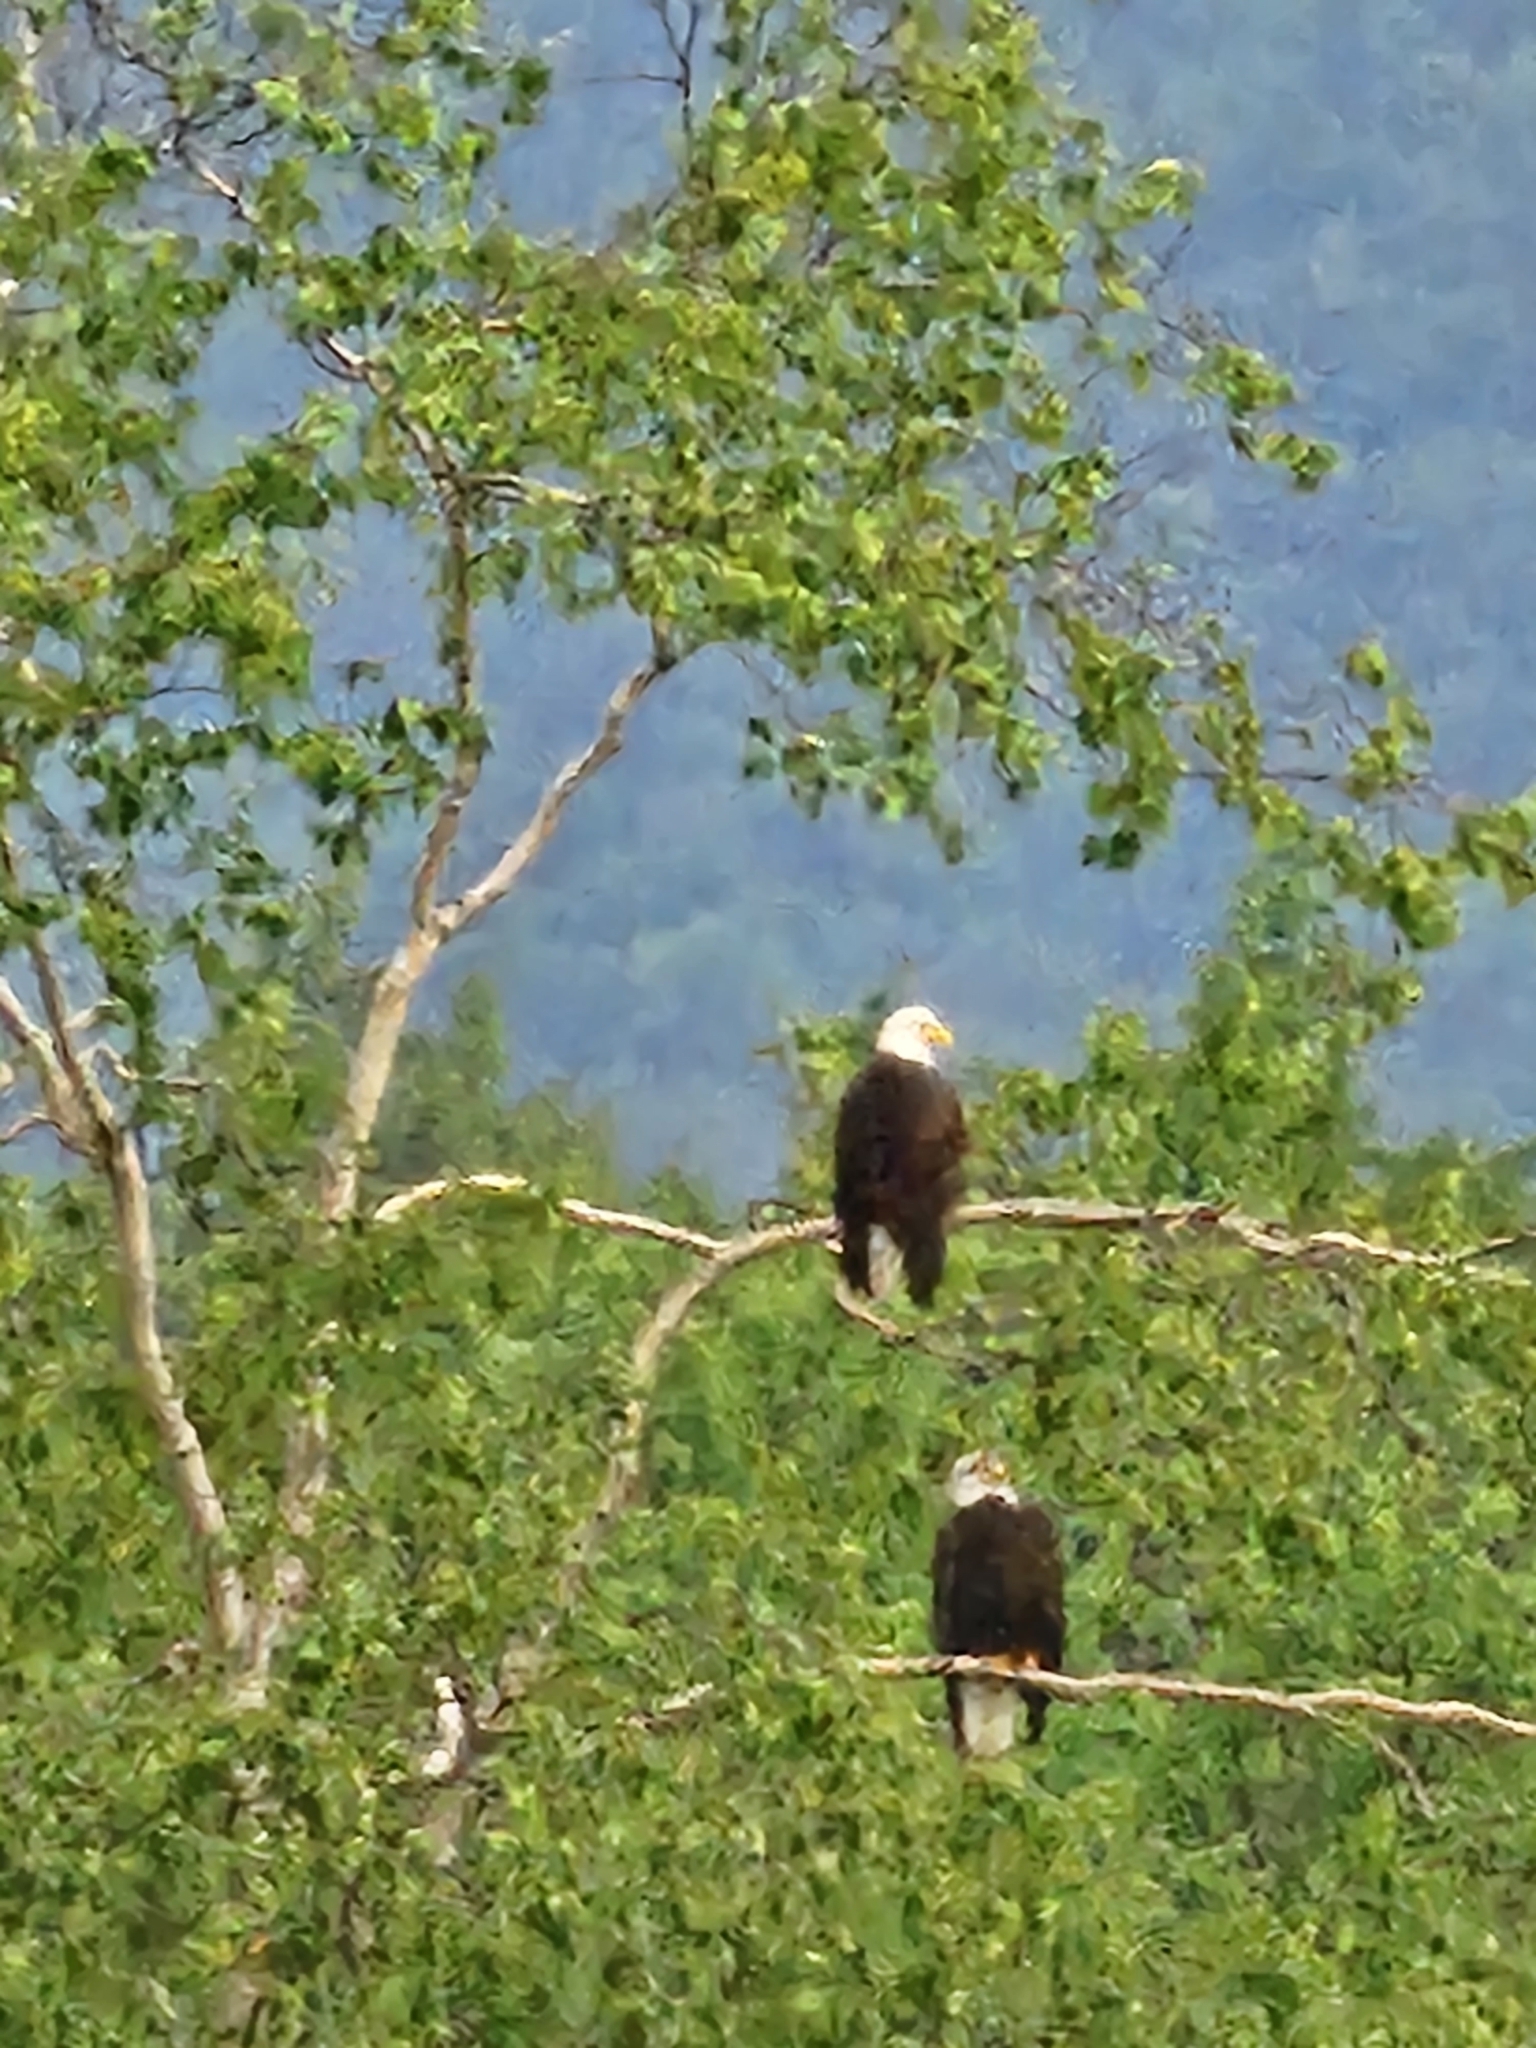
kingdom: Animalia
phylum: Chordata
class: Aves
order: Accipitriformes
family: Accipitridae
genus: Haliaeetus
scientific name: Haliaeetus leucocephalus
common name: Bald eagle
